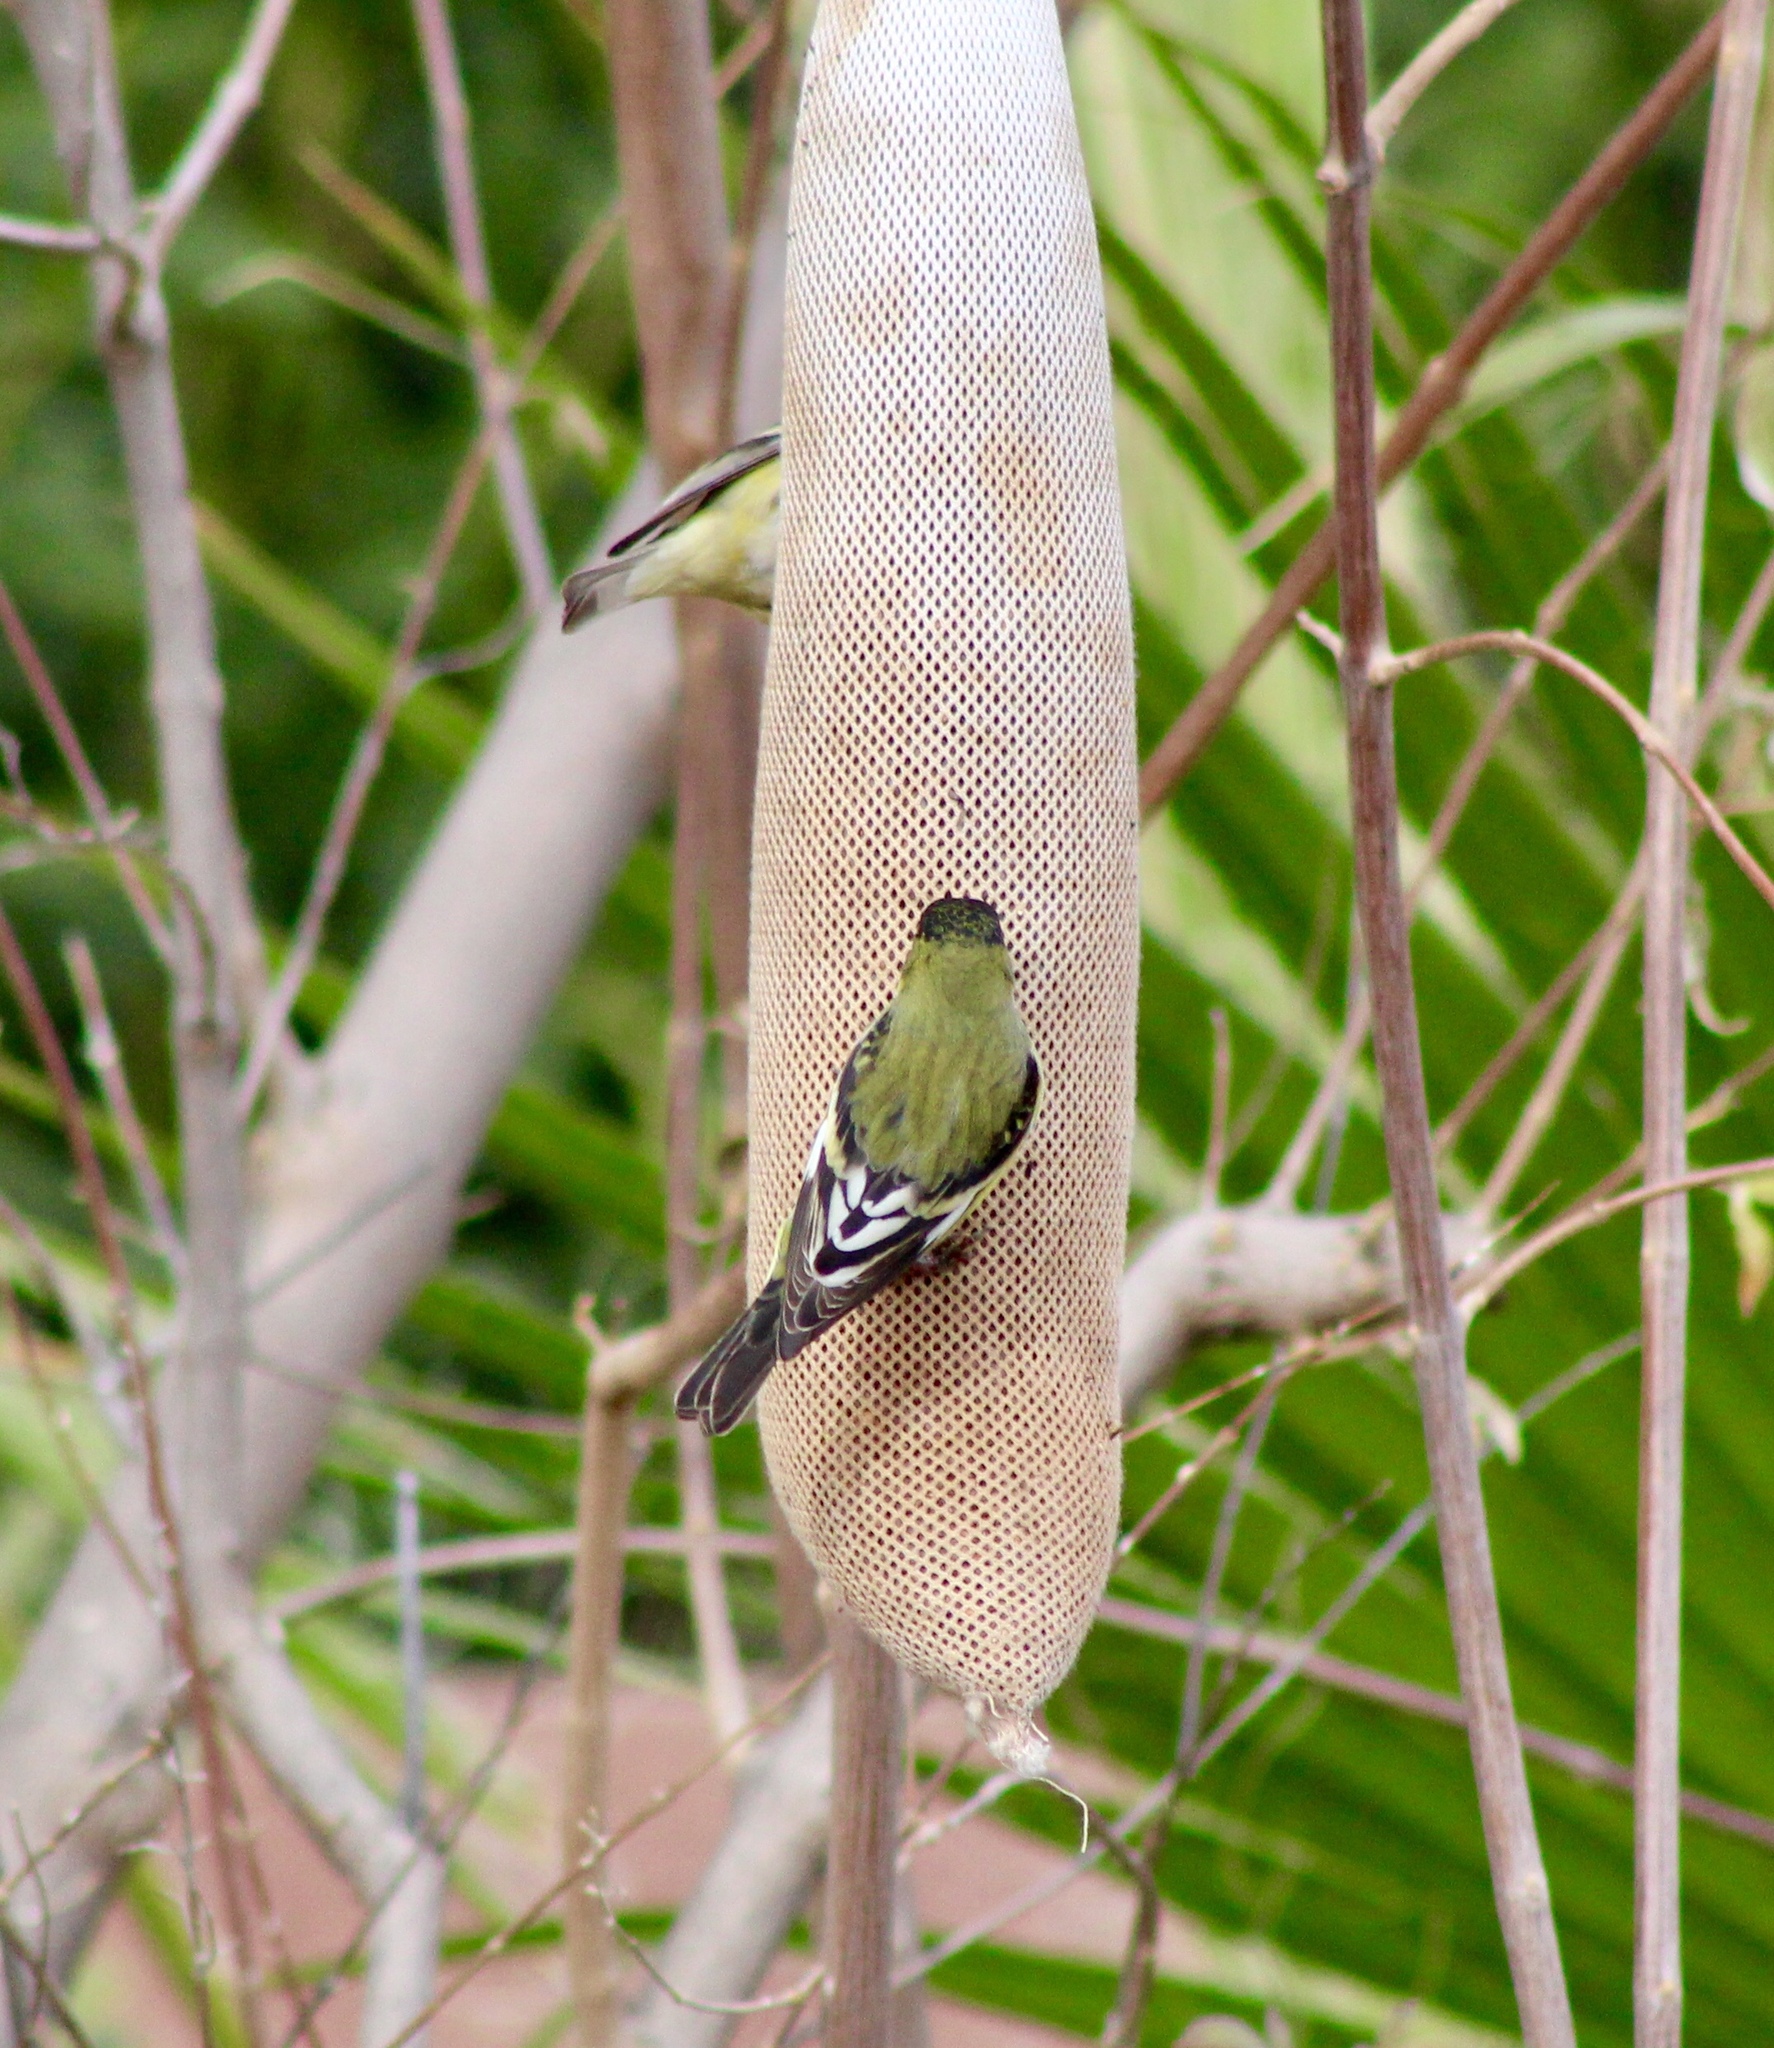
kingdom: Animalia
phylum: Chordata
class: Aves
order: Passeriformes
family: Fringillidae
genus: Spinus
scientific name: Spinus psaltria
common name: Lesser goldfinch
